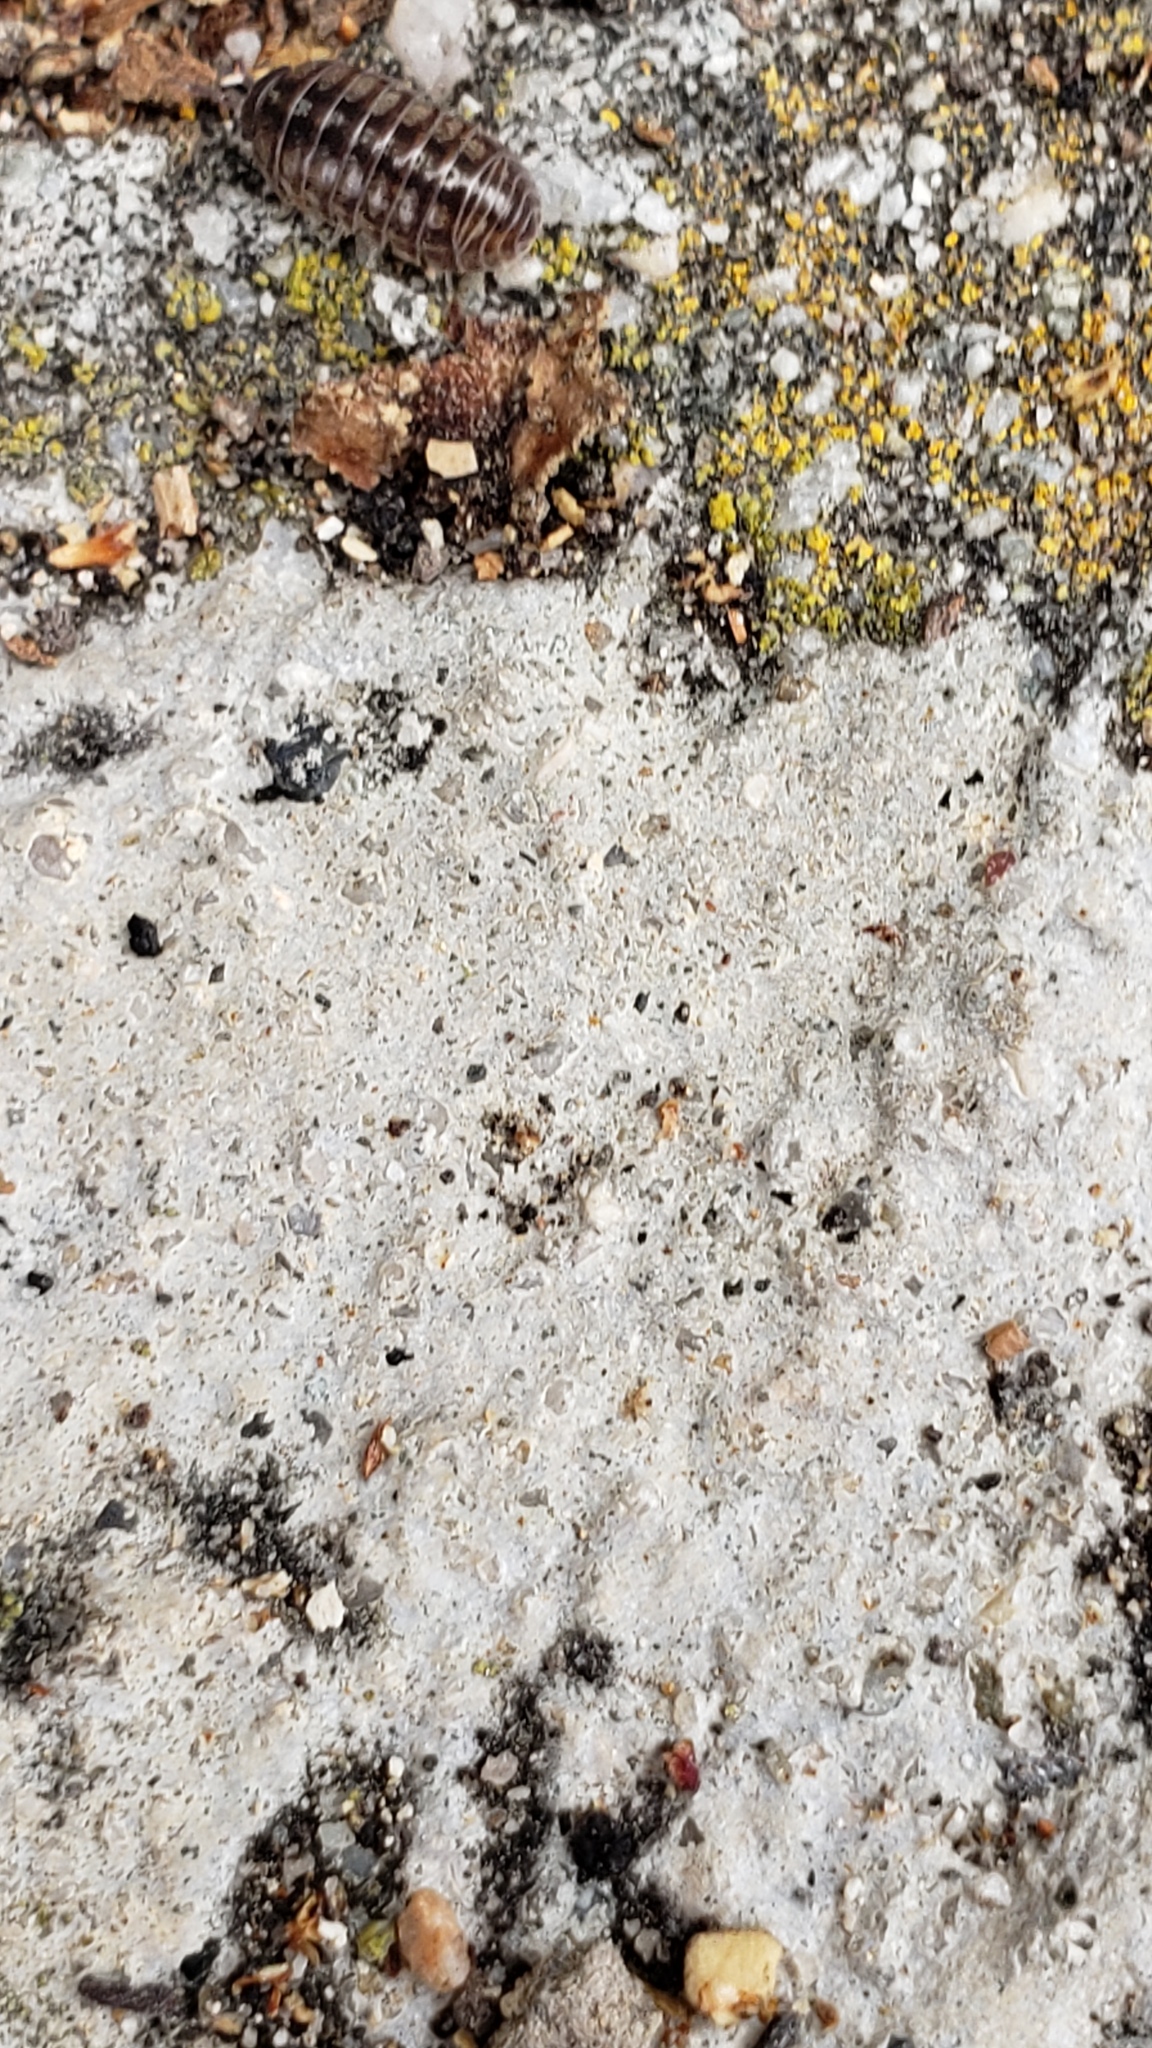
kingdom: Animalia
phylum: Arthropoda
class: Malacostraca
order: Isopoda
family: Armadillidiidae
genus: Armadillidium
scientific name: Armadillidium vulgare
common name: Common pill woodlouse
